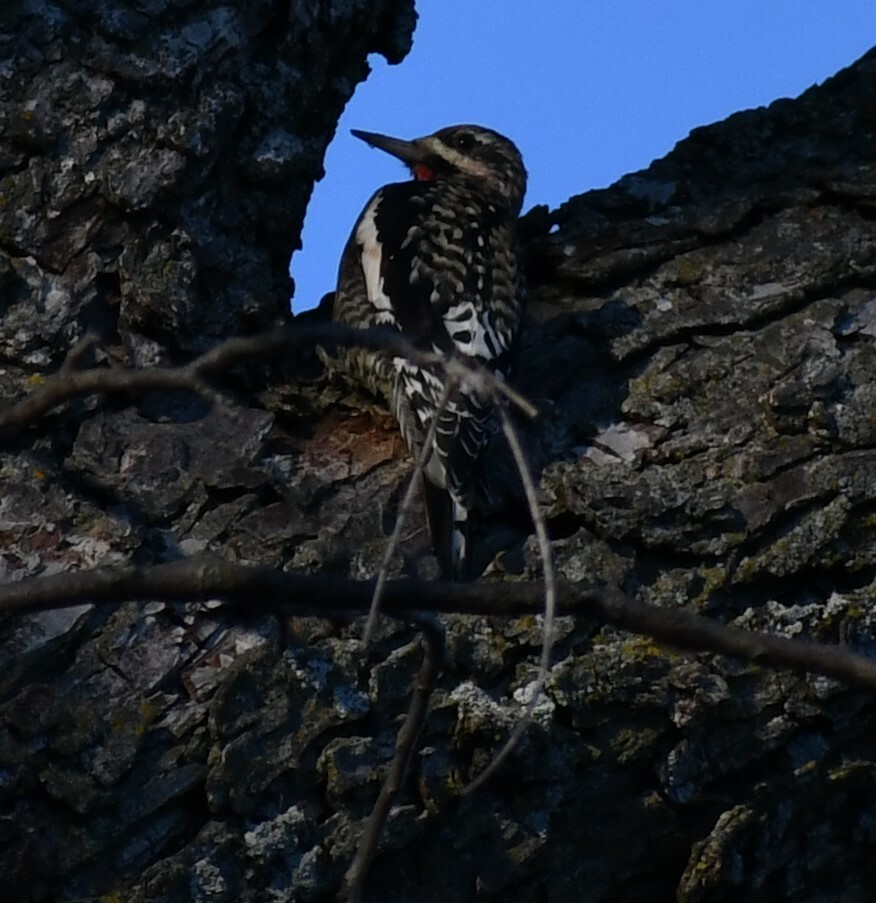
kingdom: Animalia
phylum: Chordata
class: Aves
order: Piciformes
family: Picidae
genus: Sphyrapicus
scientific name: Sphyrapicus varius
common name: Yellow-bellied sapsucker
